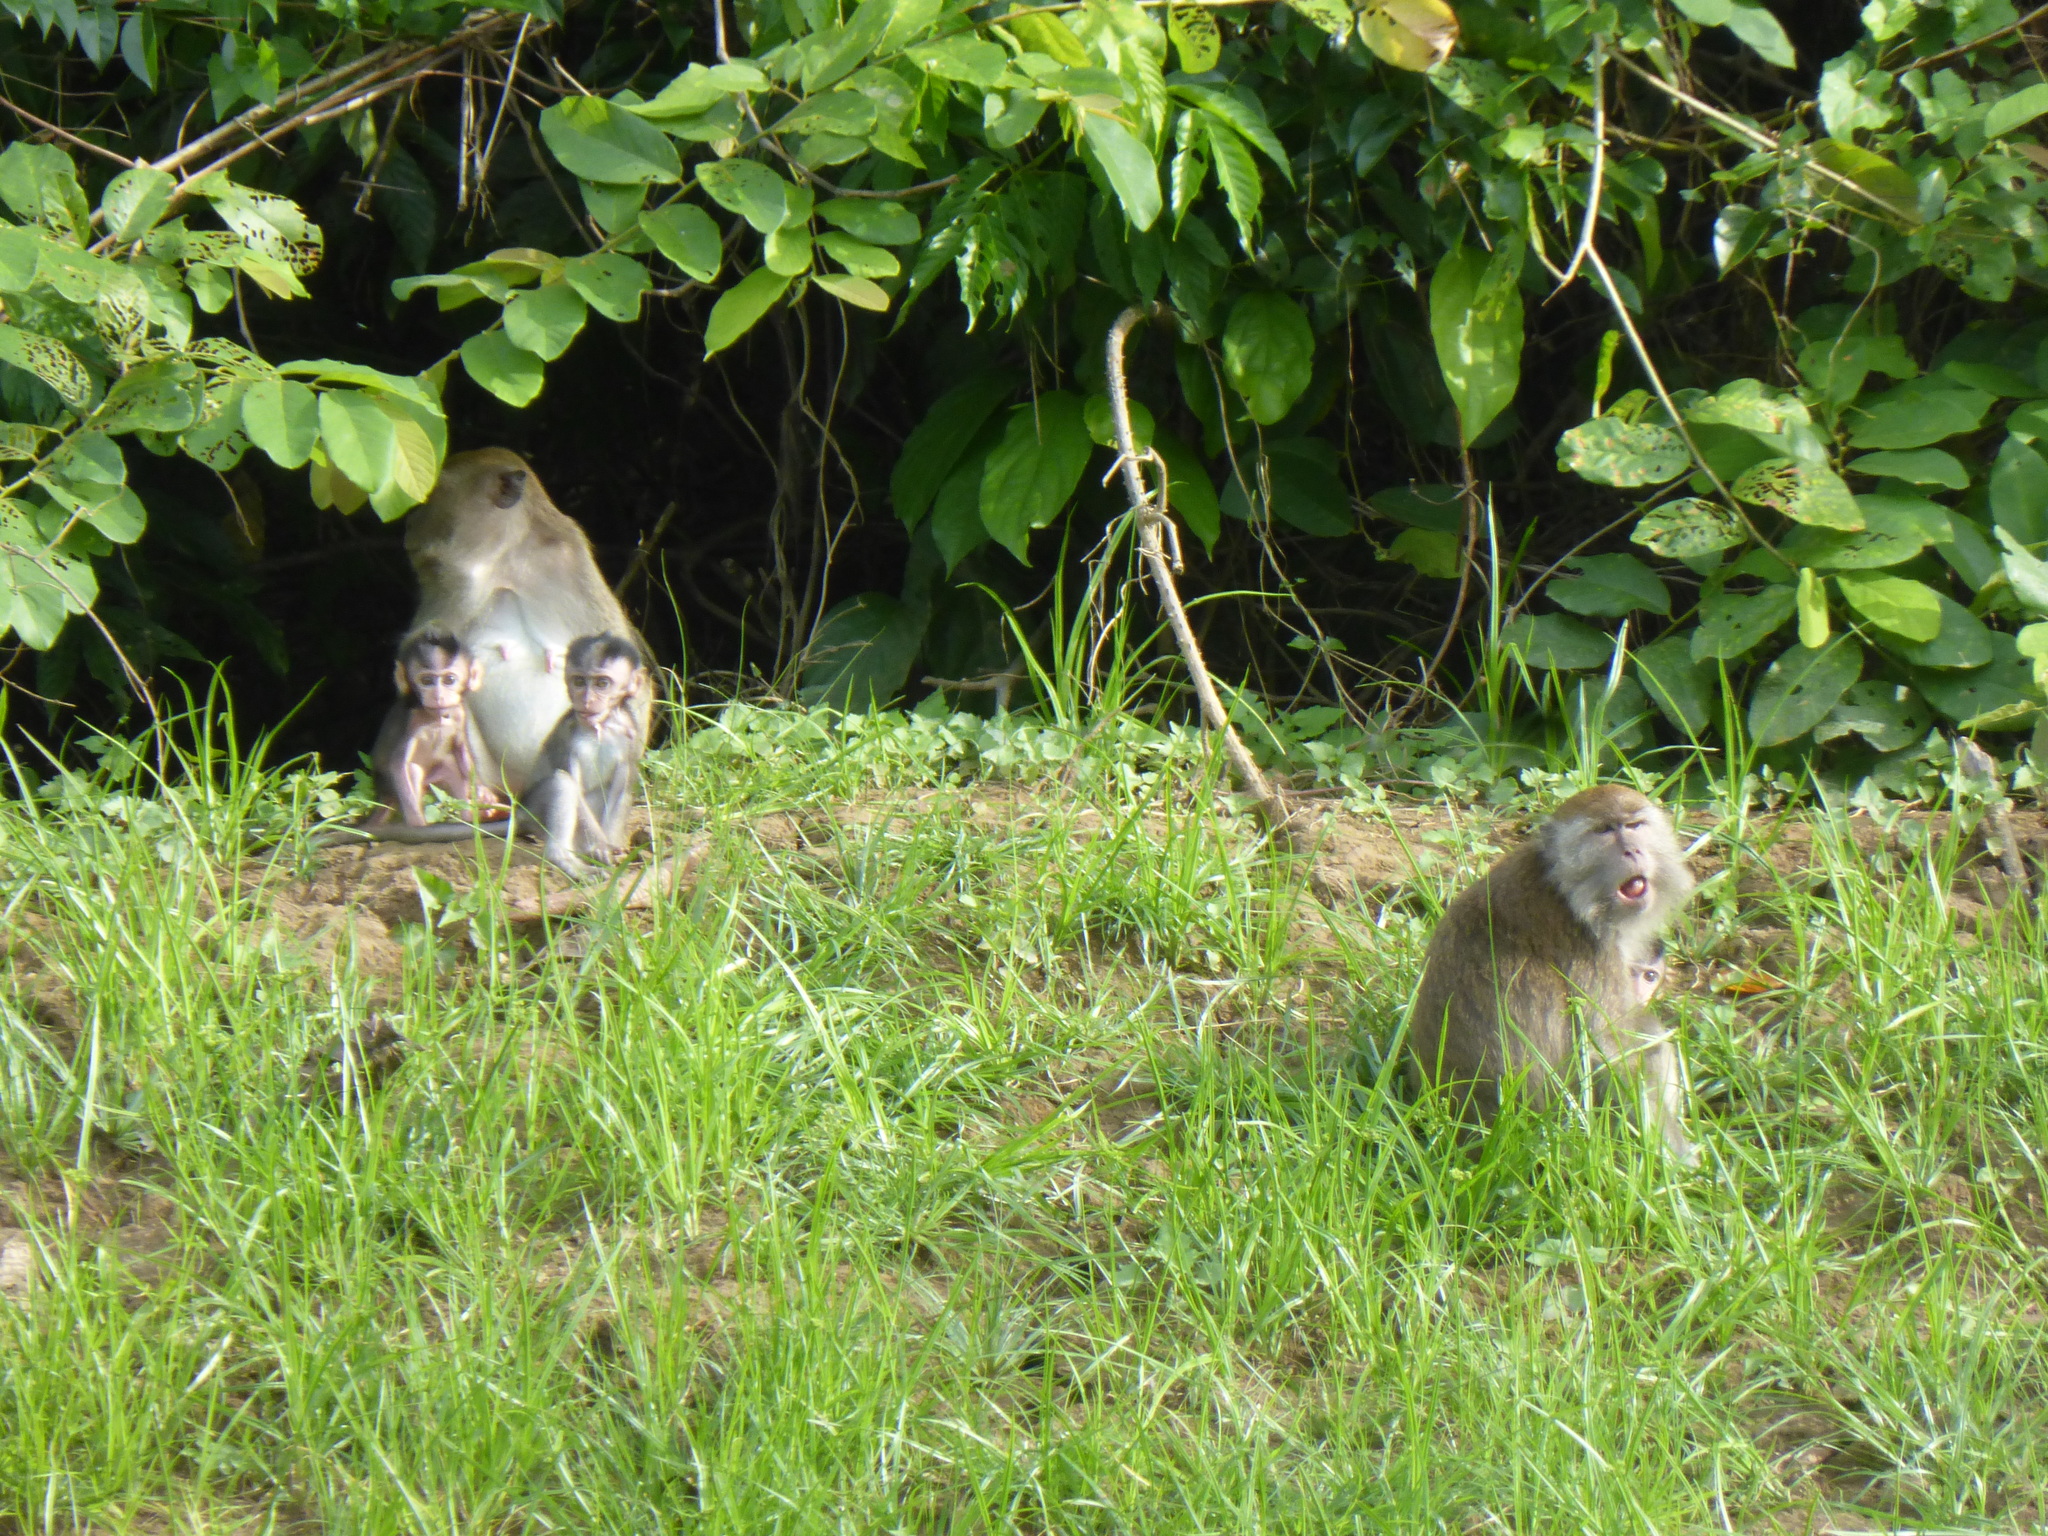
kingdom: Animalia
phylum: Chordata
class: Mammalia
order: Primates
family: Cercopithecidae
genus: Macaca
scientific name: Macaca fascicularis
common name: Crab-eating macaque
